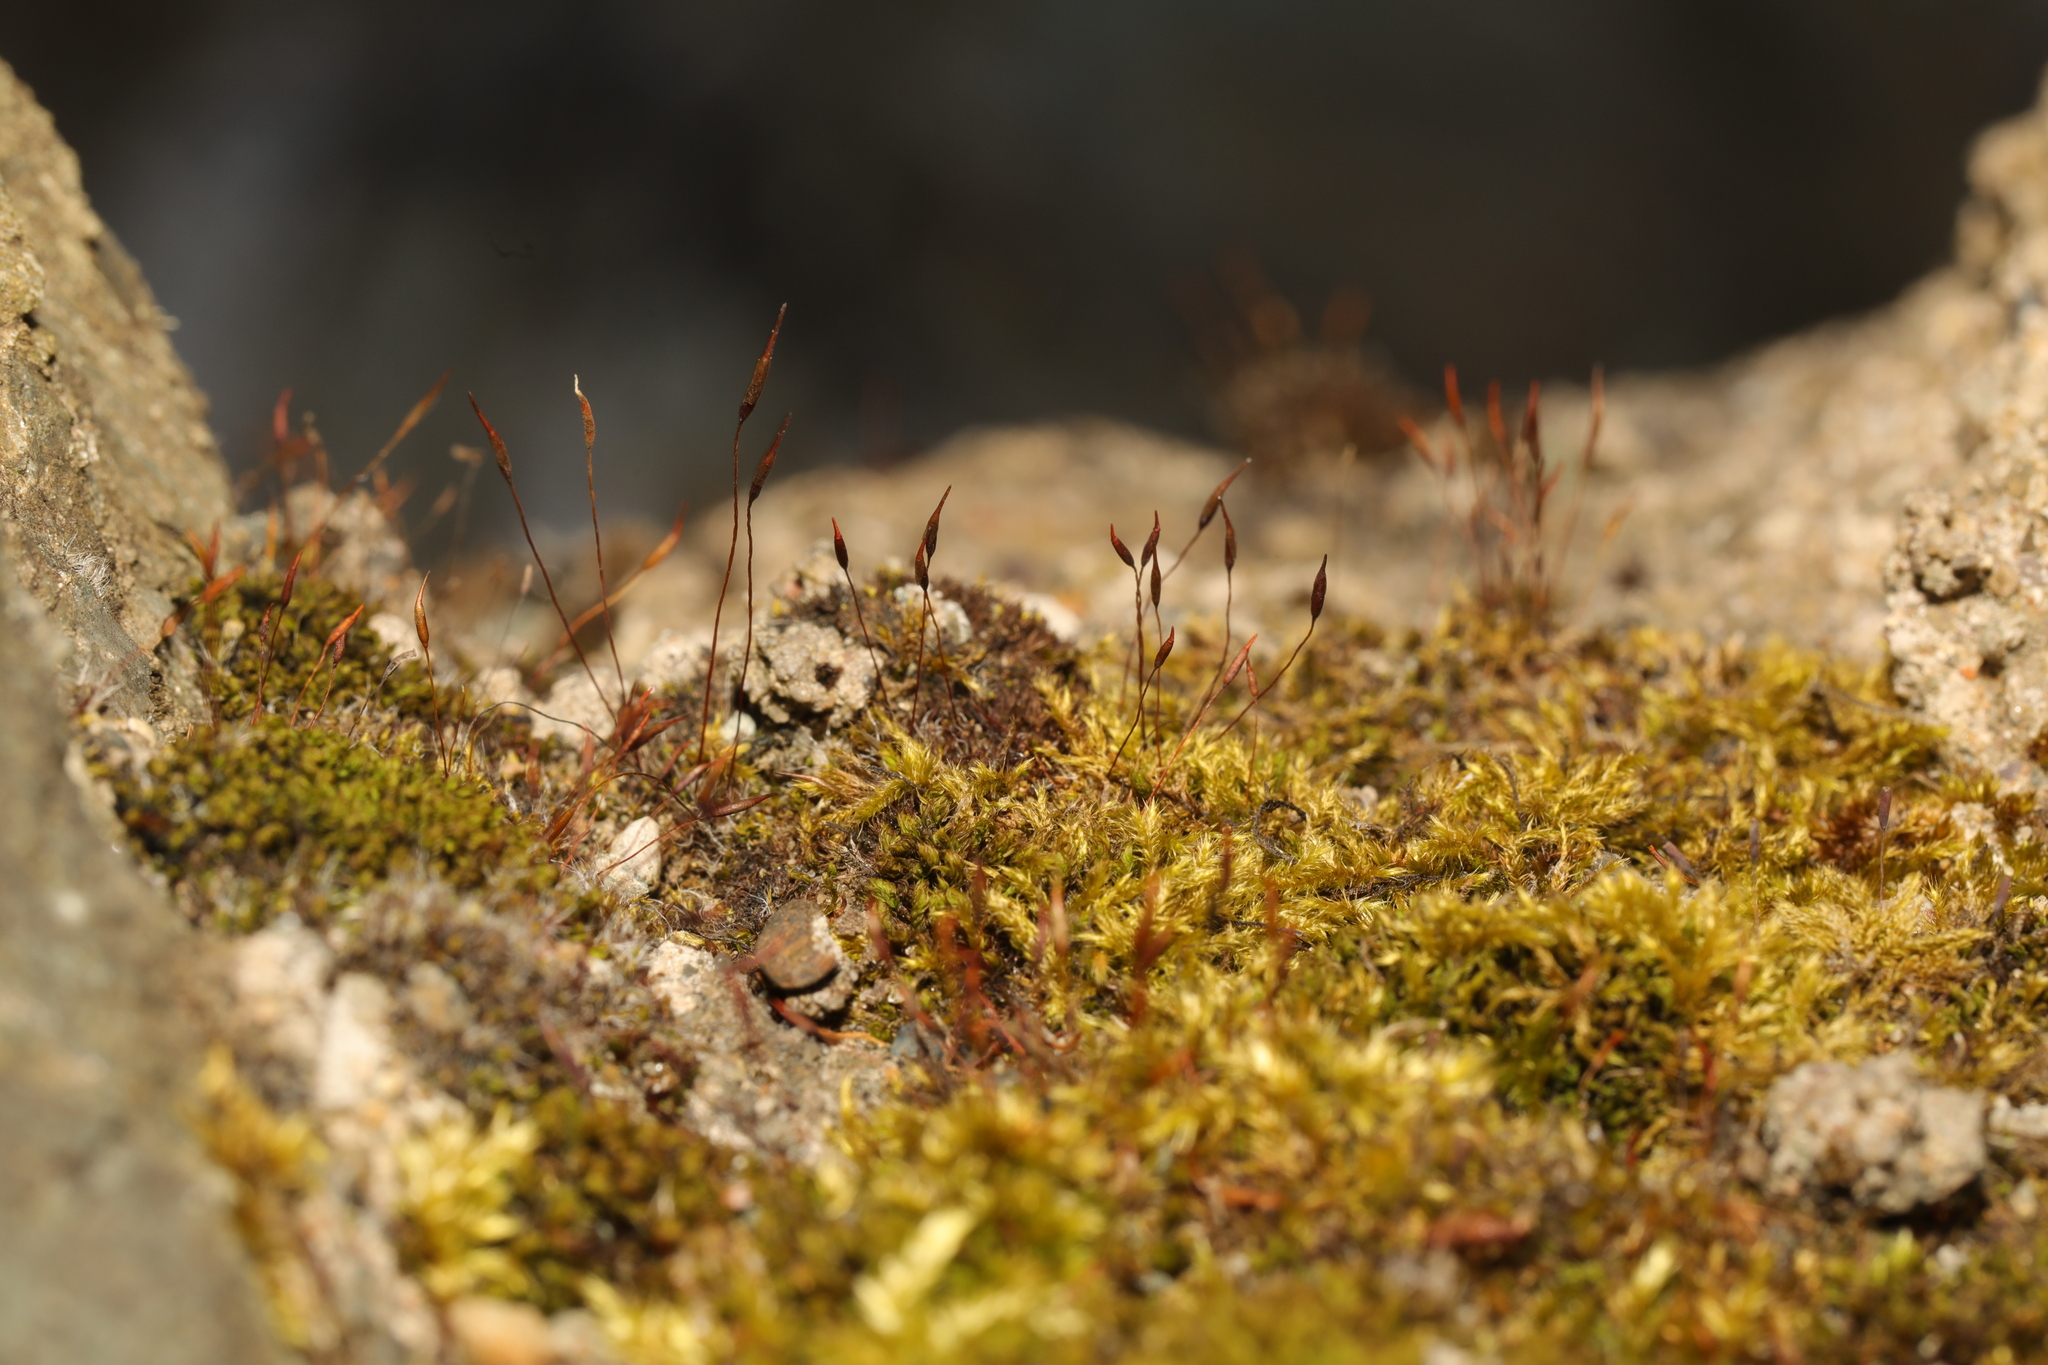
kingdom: Plantae
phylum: Bryophyta
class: Bryopsida
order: Pottiales
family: Pottiaceae
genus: Tortula
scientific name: Tortula muralis
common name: Wall screw-moss
